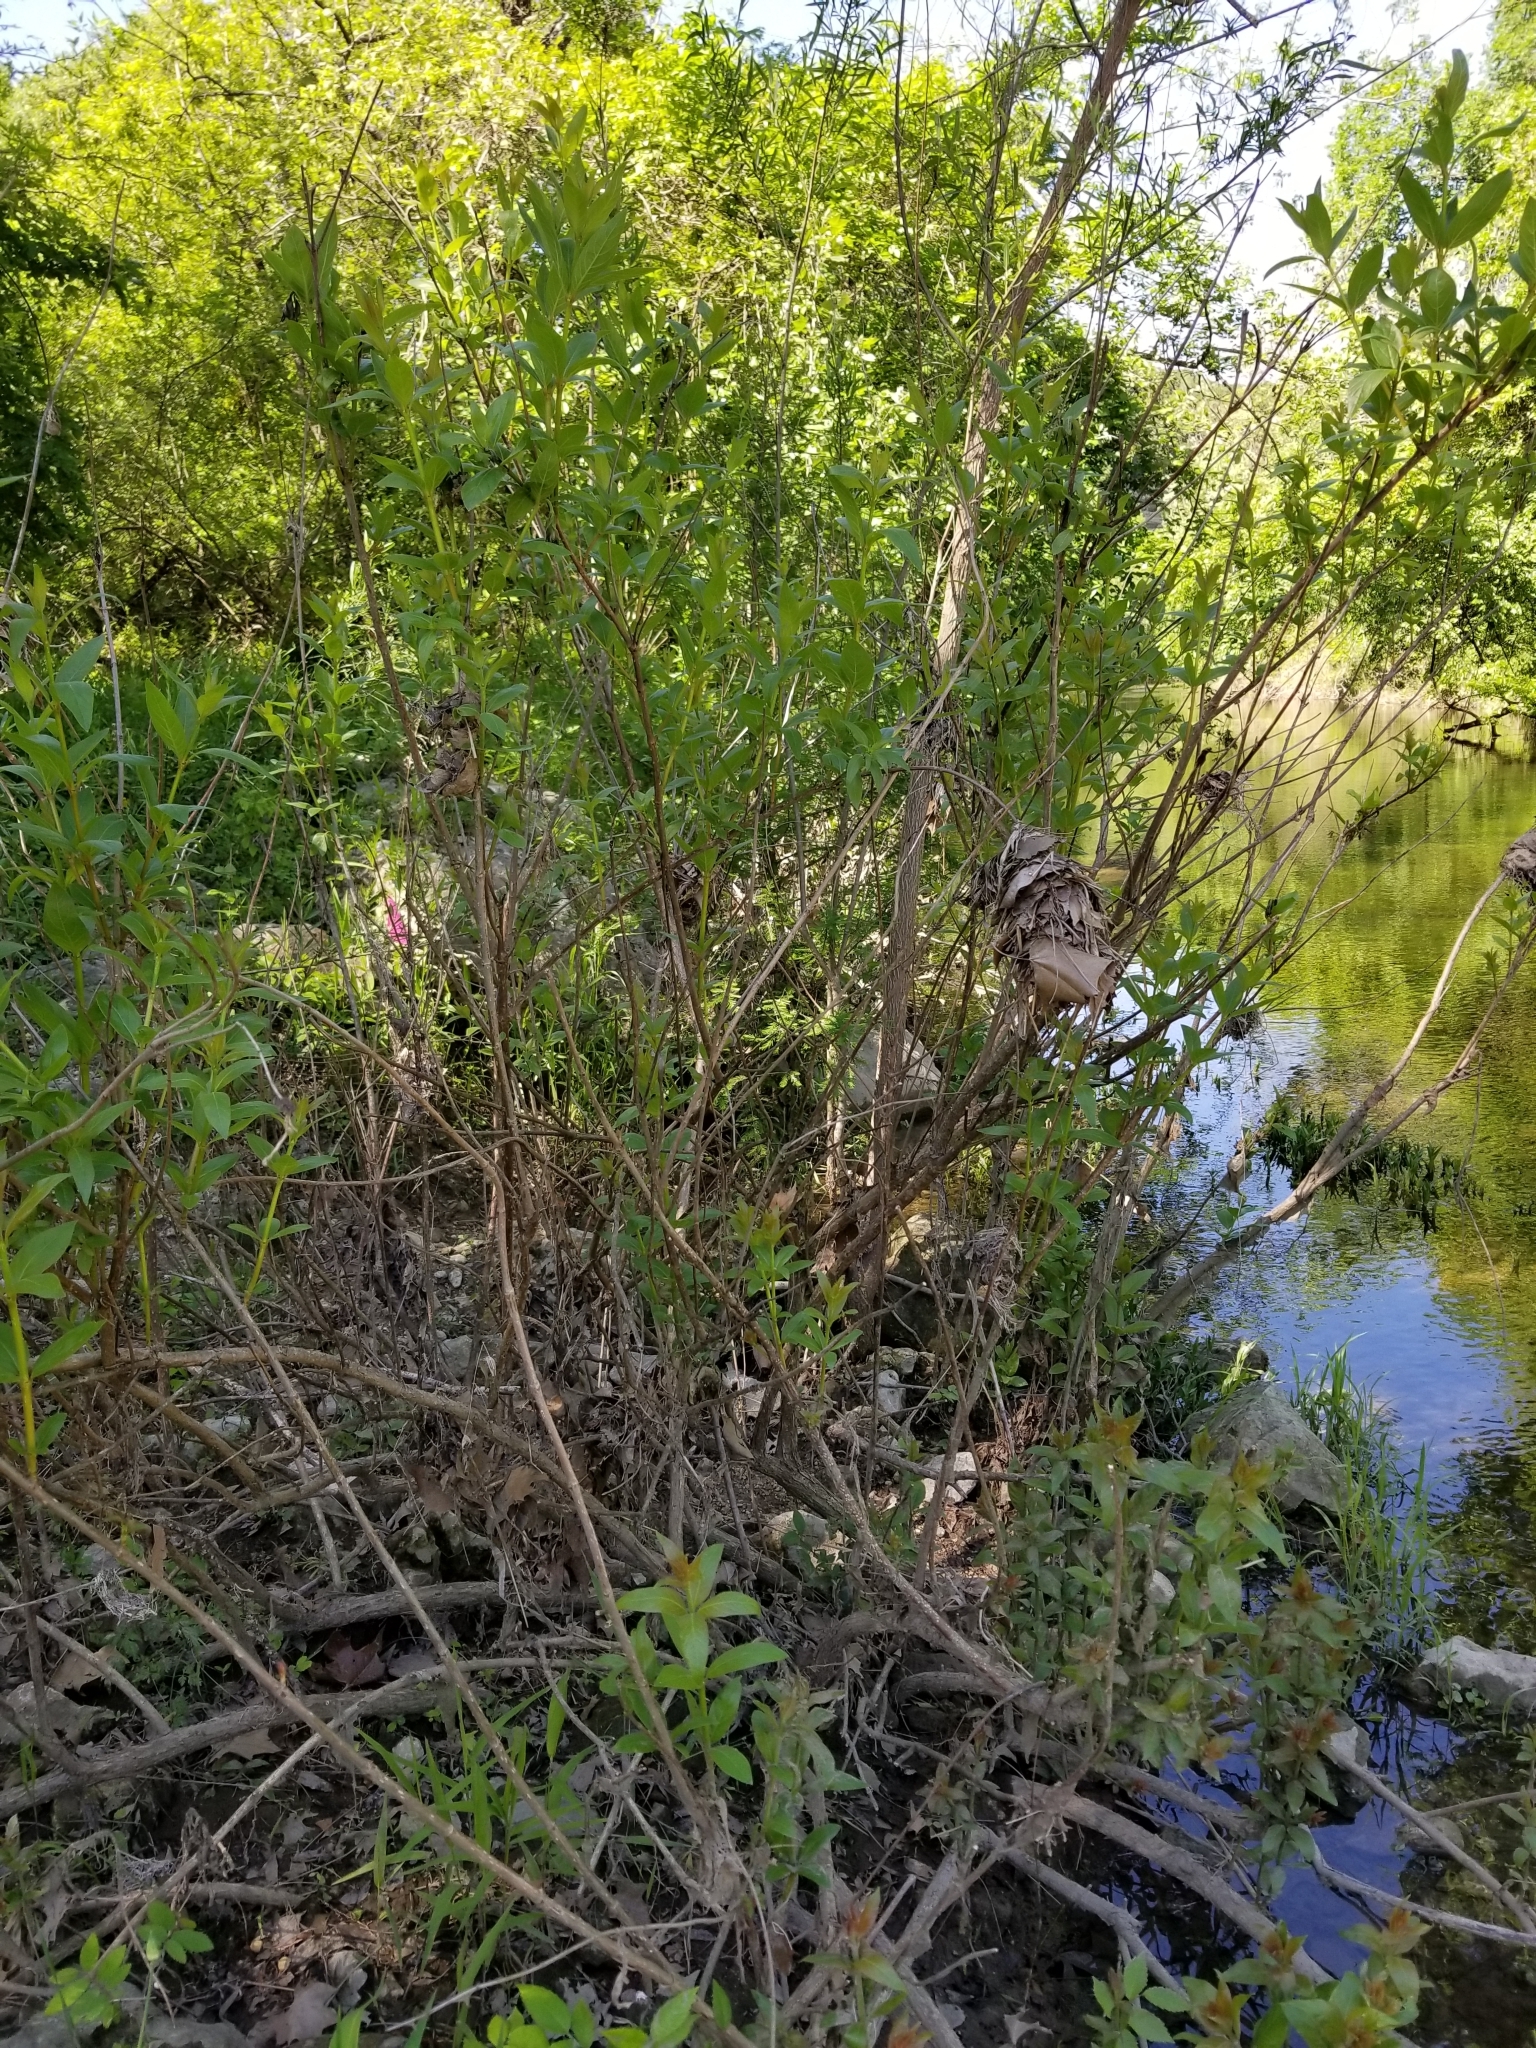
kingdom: Plantae
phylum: Tracheophyta
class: Magnoliopsida
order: Gentianales
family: Rubiaceae
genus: Cephalanthus
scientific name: Cephalanthus occidentalis
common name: Button-willow
